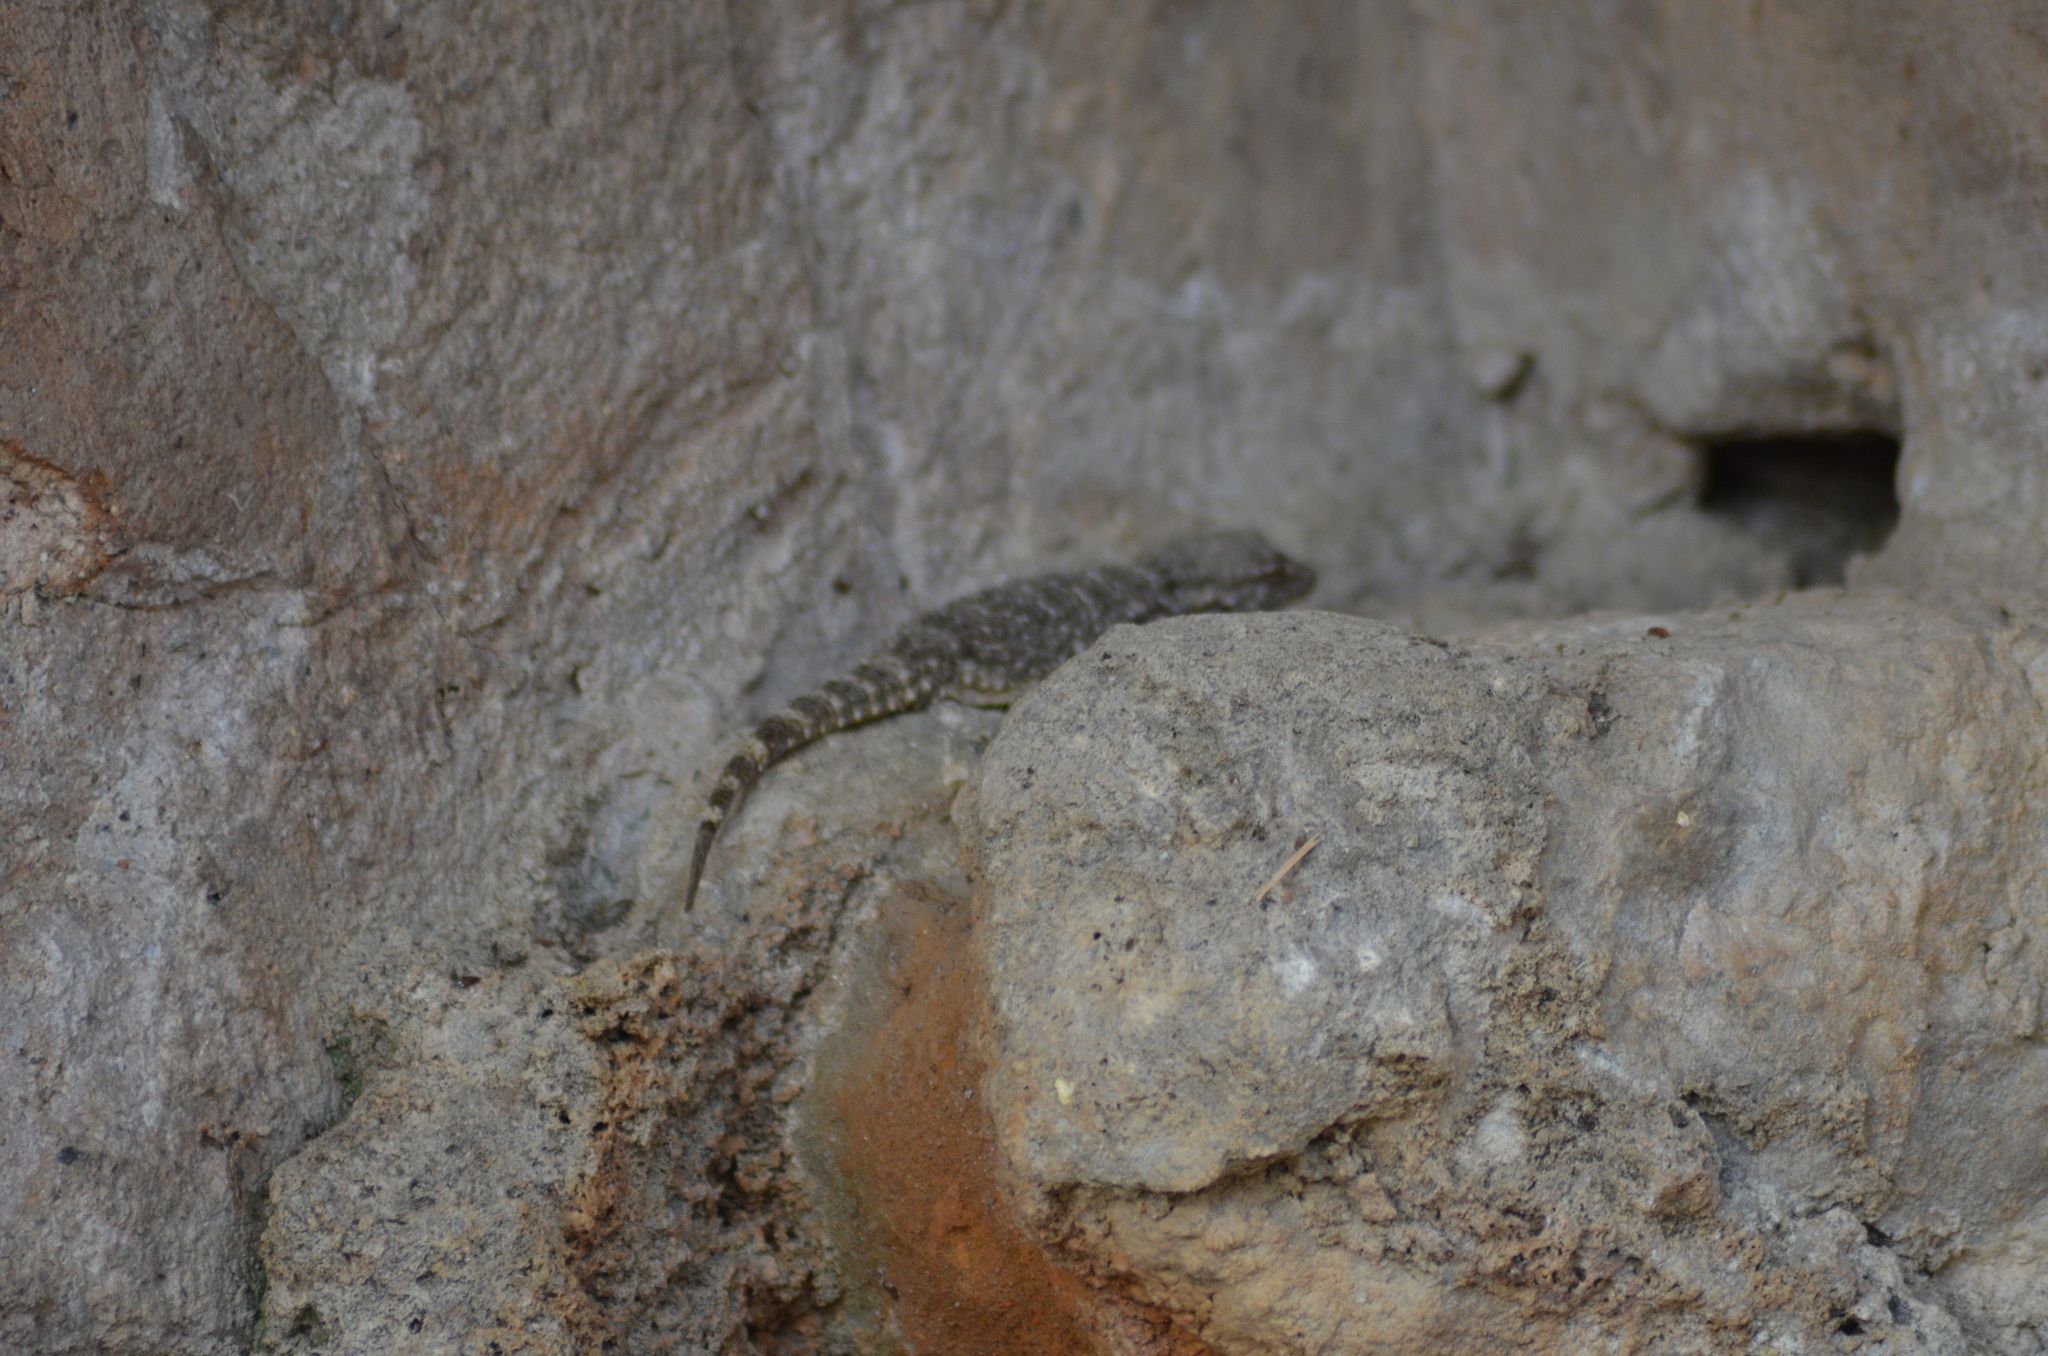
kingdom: Animalia
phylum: Chordata
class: Squamata
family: Phyllodactylidae
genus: Tarentola
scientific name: Tarentola mauritanica
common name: Moorish gecko
